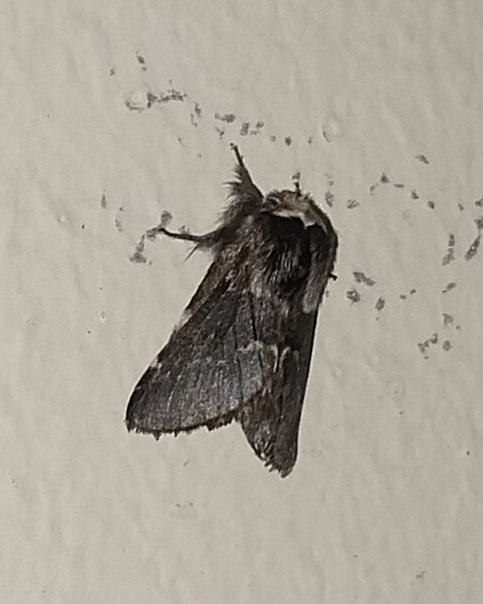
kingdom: Animalia
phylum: Arthropoda
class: Insecta
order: Lepidoptera
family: Lasiocampidae
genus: Poecilocampa
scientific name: Poecilocampa populi
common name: December moth
